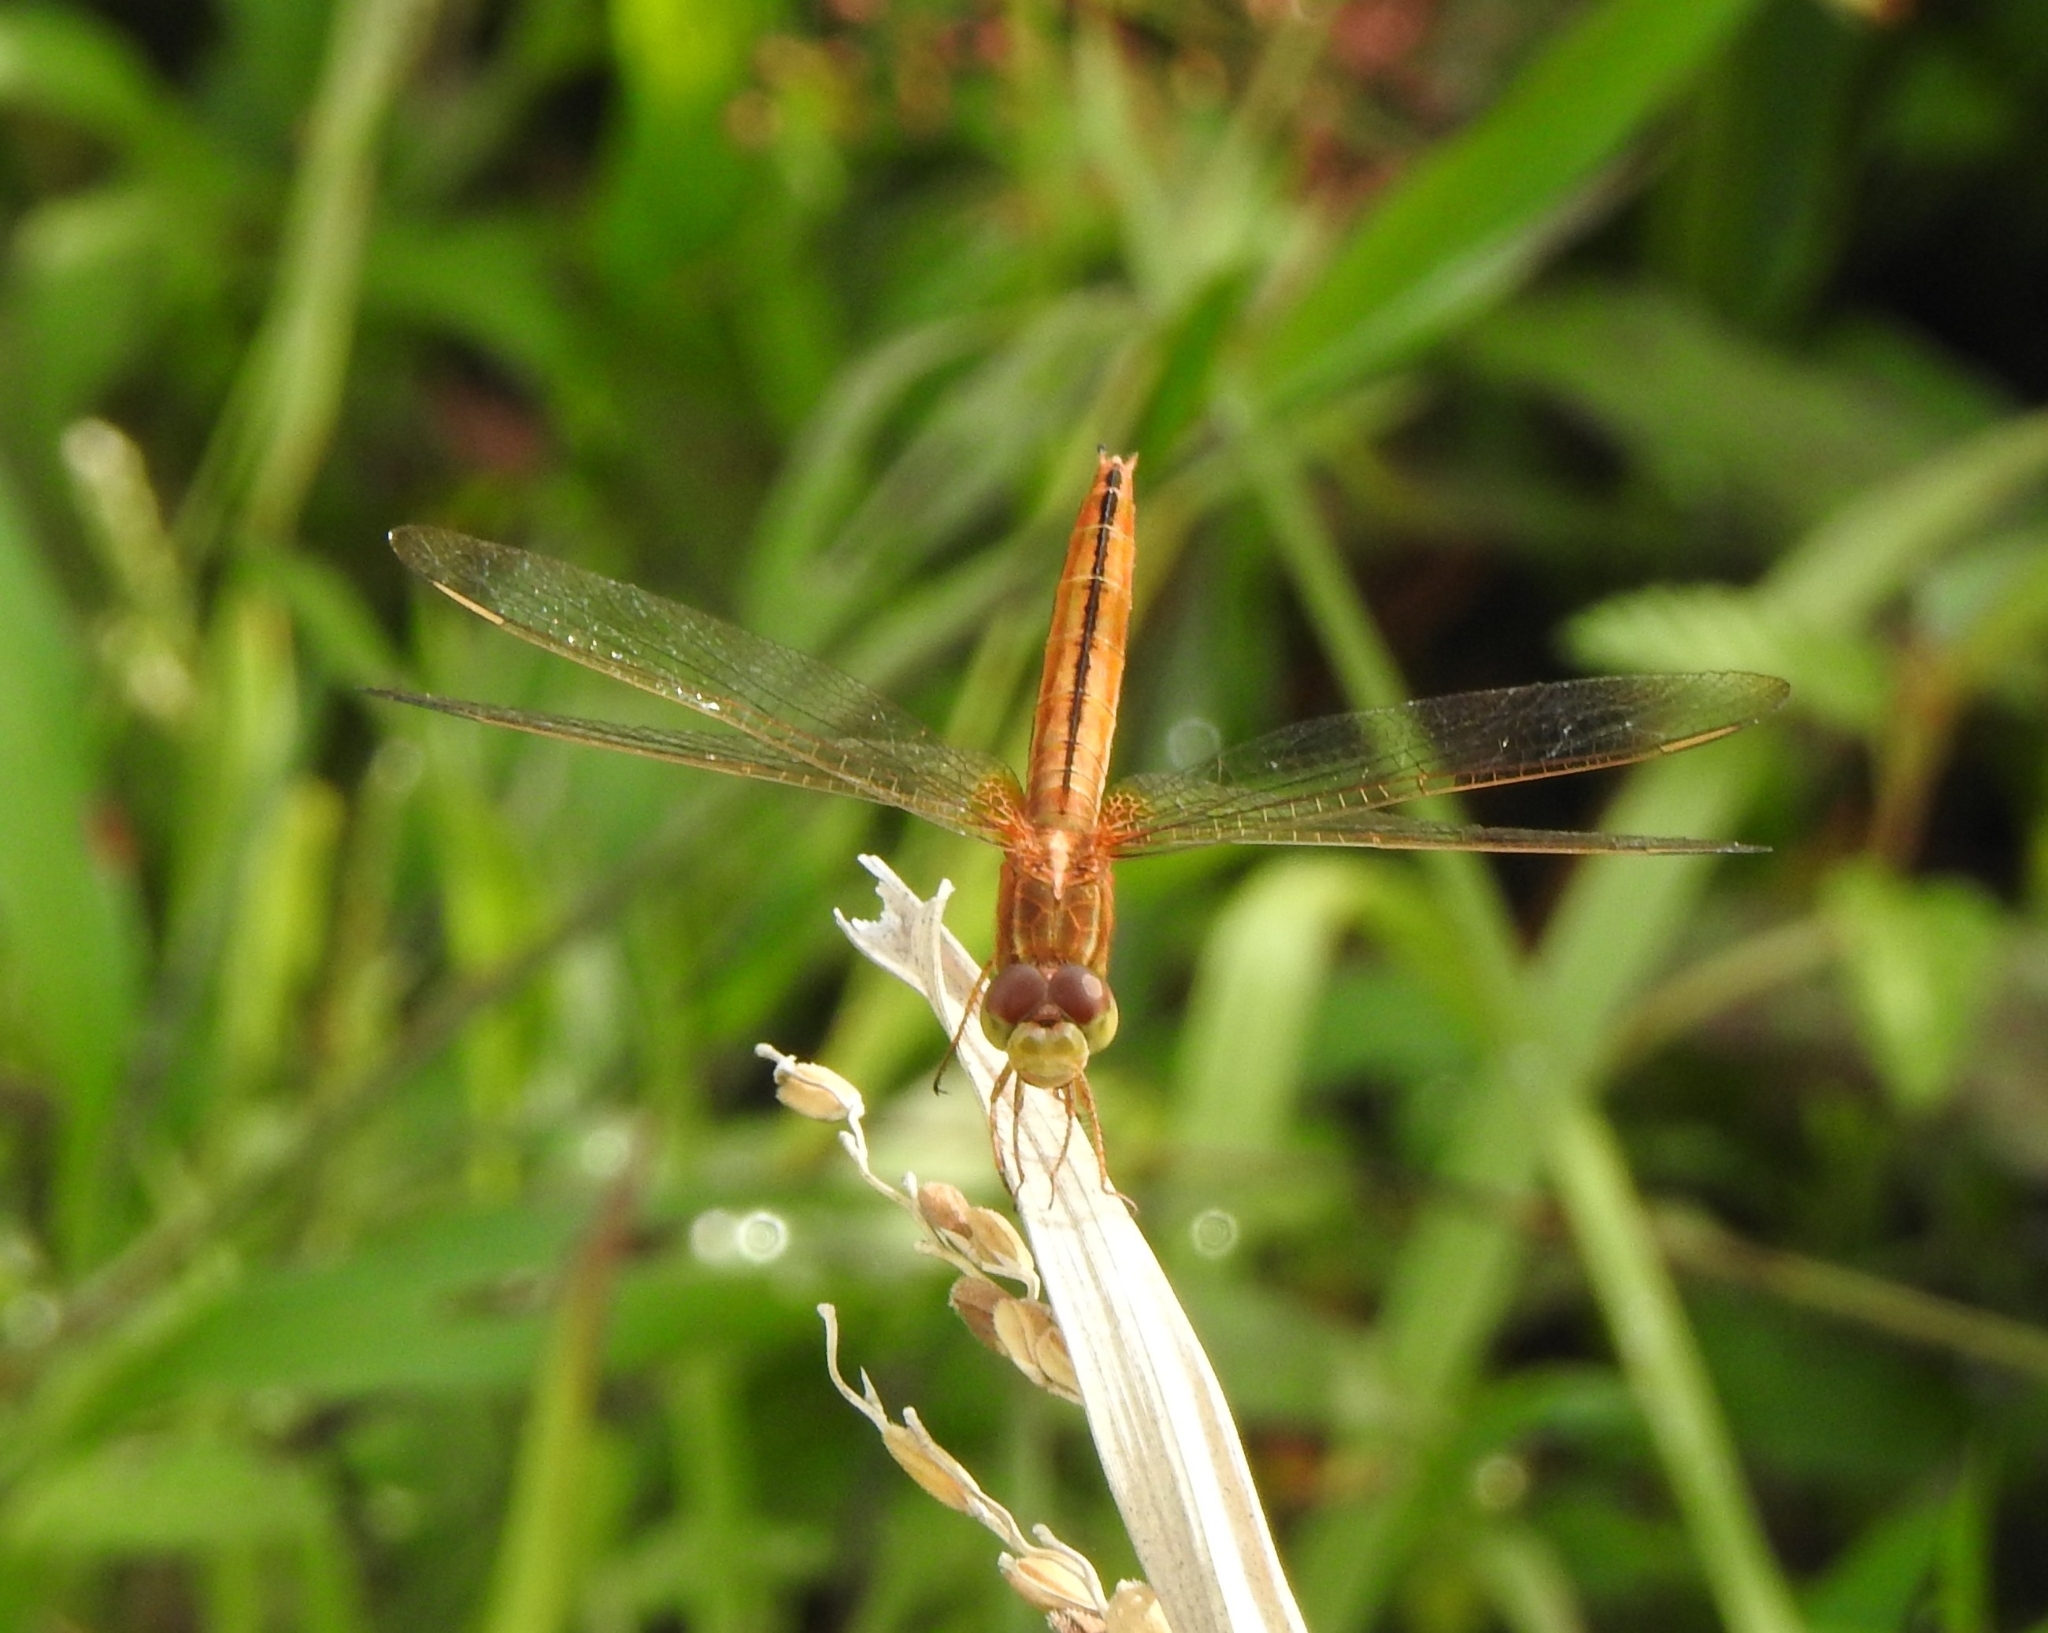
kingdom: Animalia
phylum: Arthropoda
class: Insecta
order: Odonata
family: Libellulidae
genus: Crocothemis
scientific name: Crocothemis servilia
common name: Scarlet skimmer
